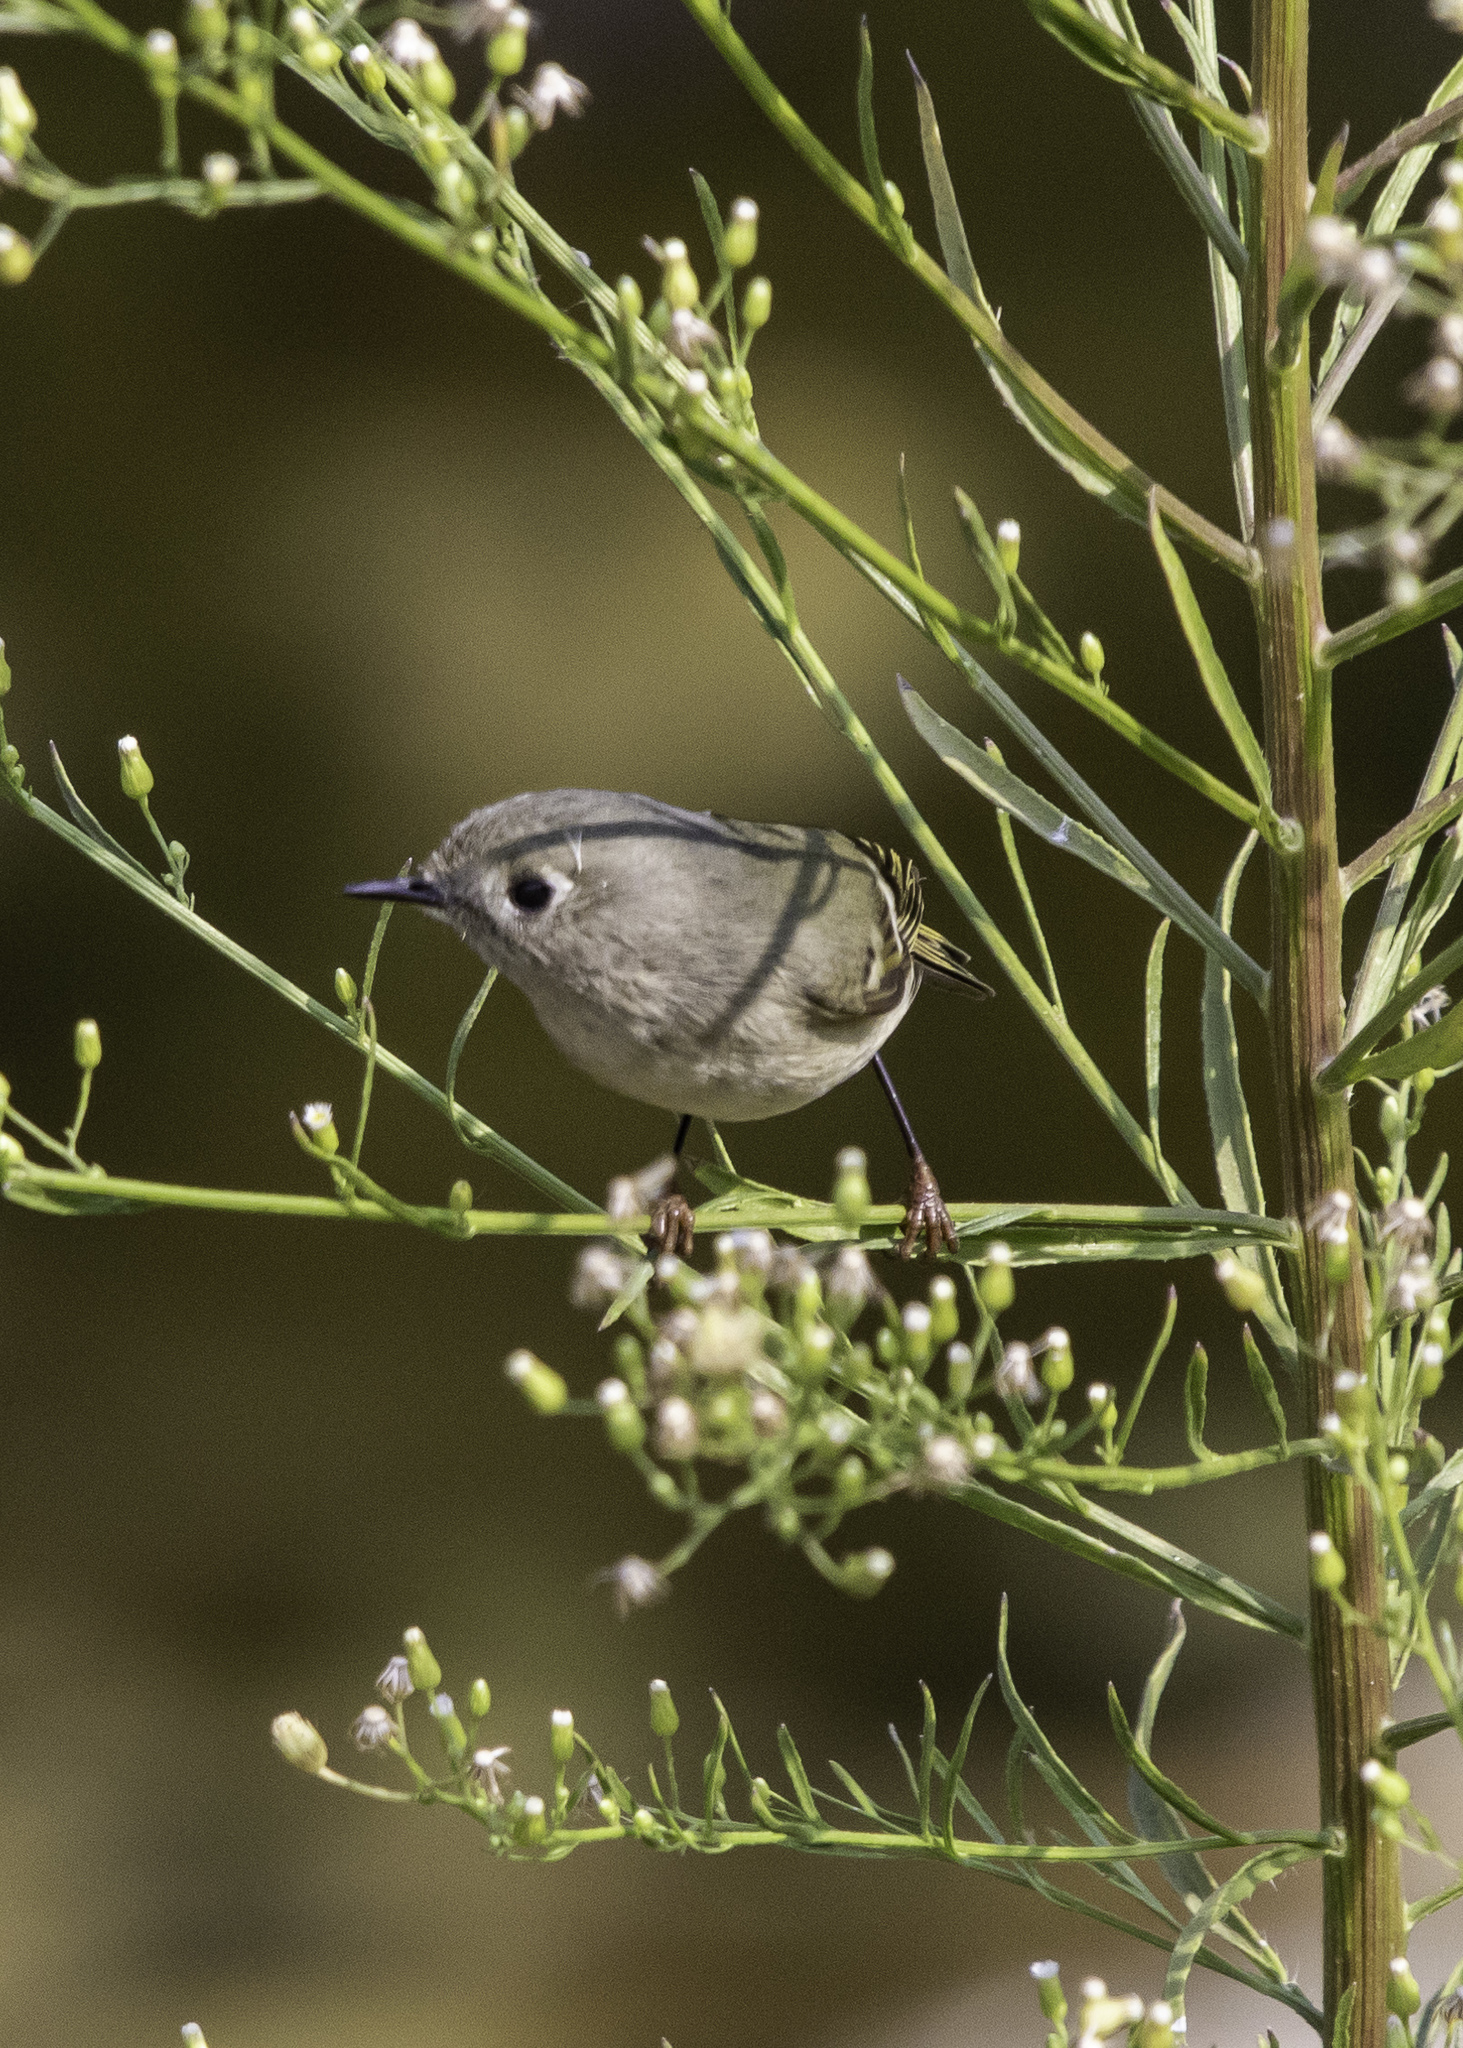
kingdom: Animalia
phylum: Chordata
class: Aves
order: Passeriformes
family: Regulidae
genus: Regulus
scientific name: Regulus calendula
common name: Ruby-crowned kinglet
